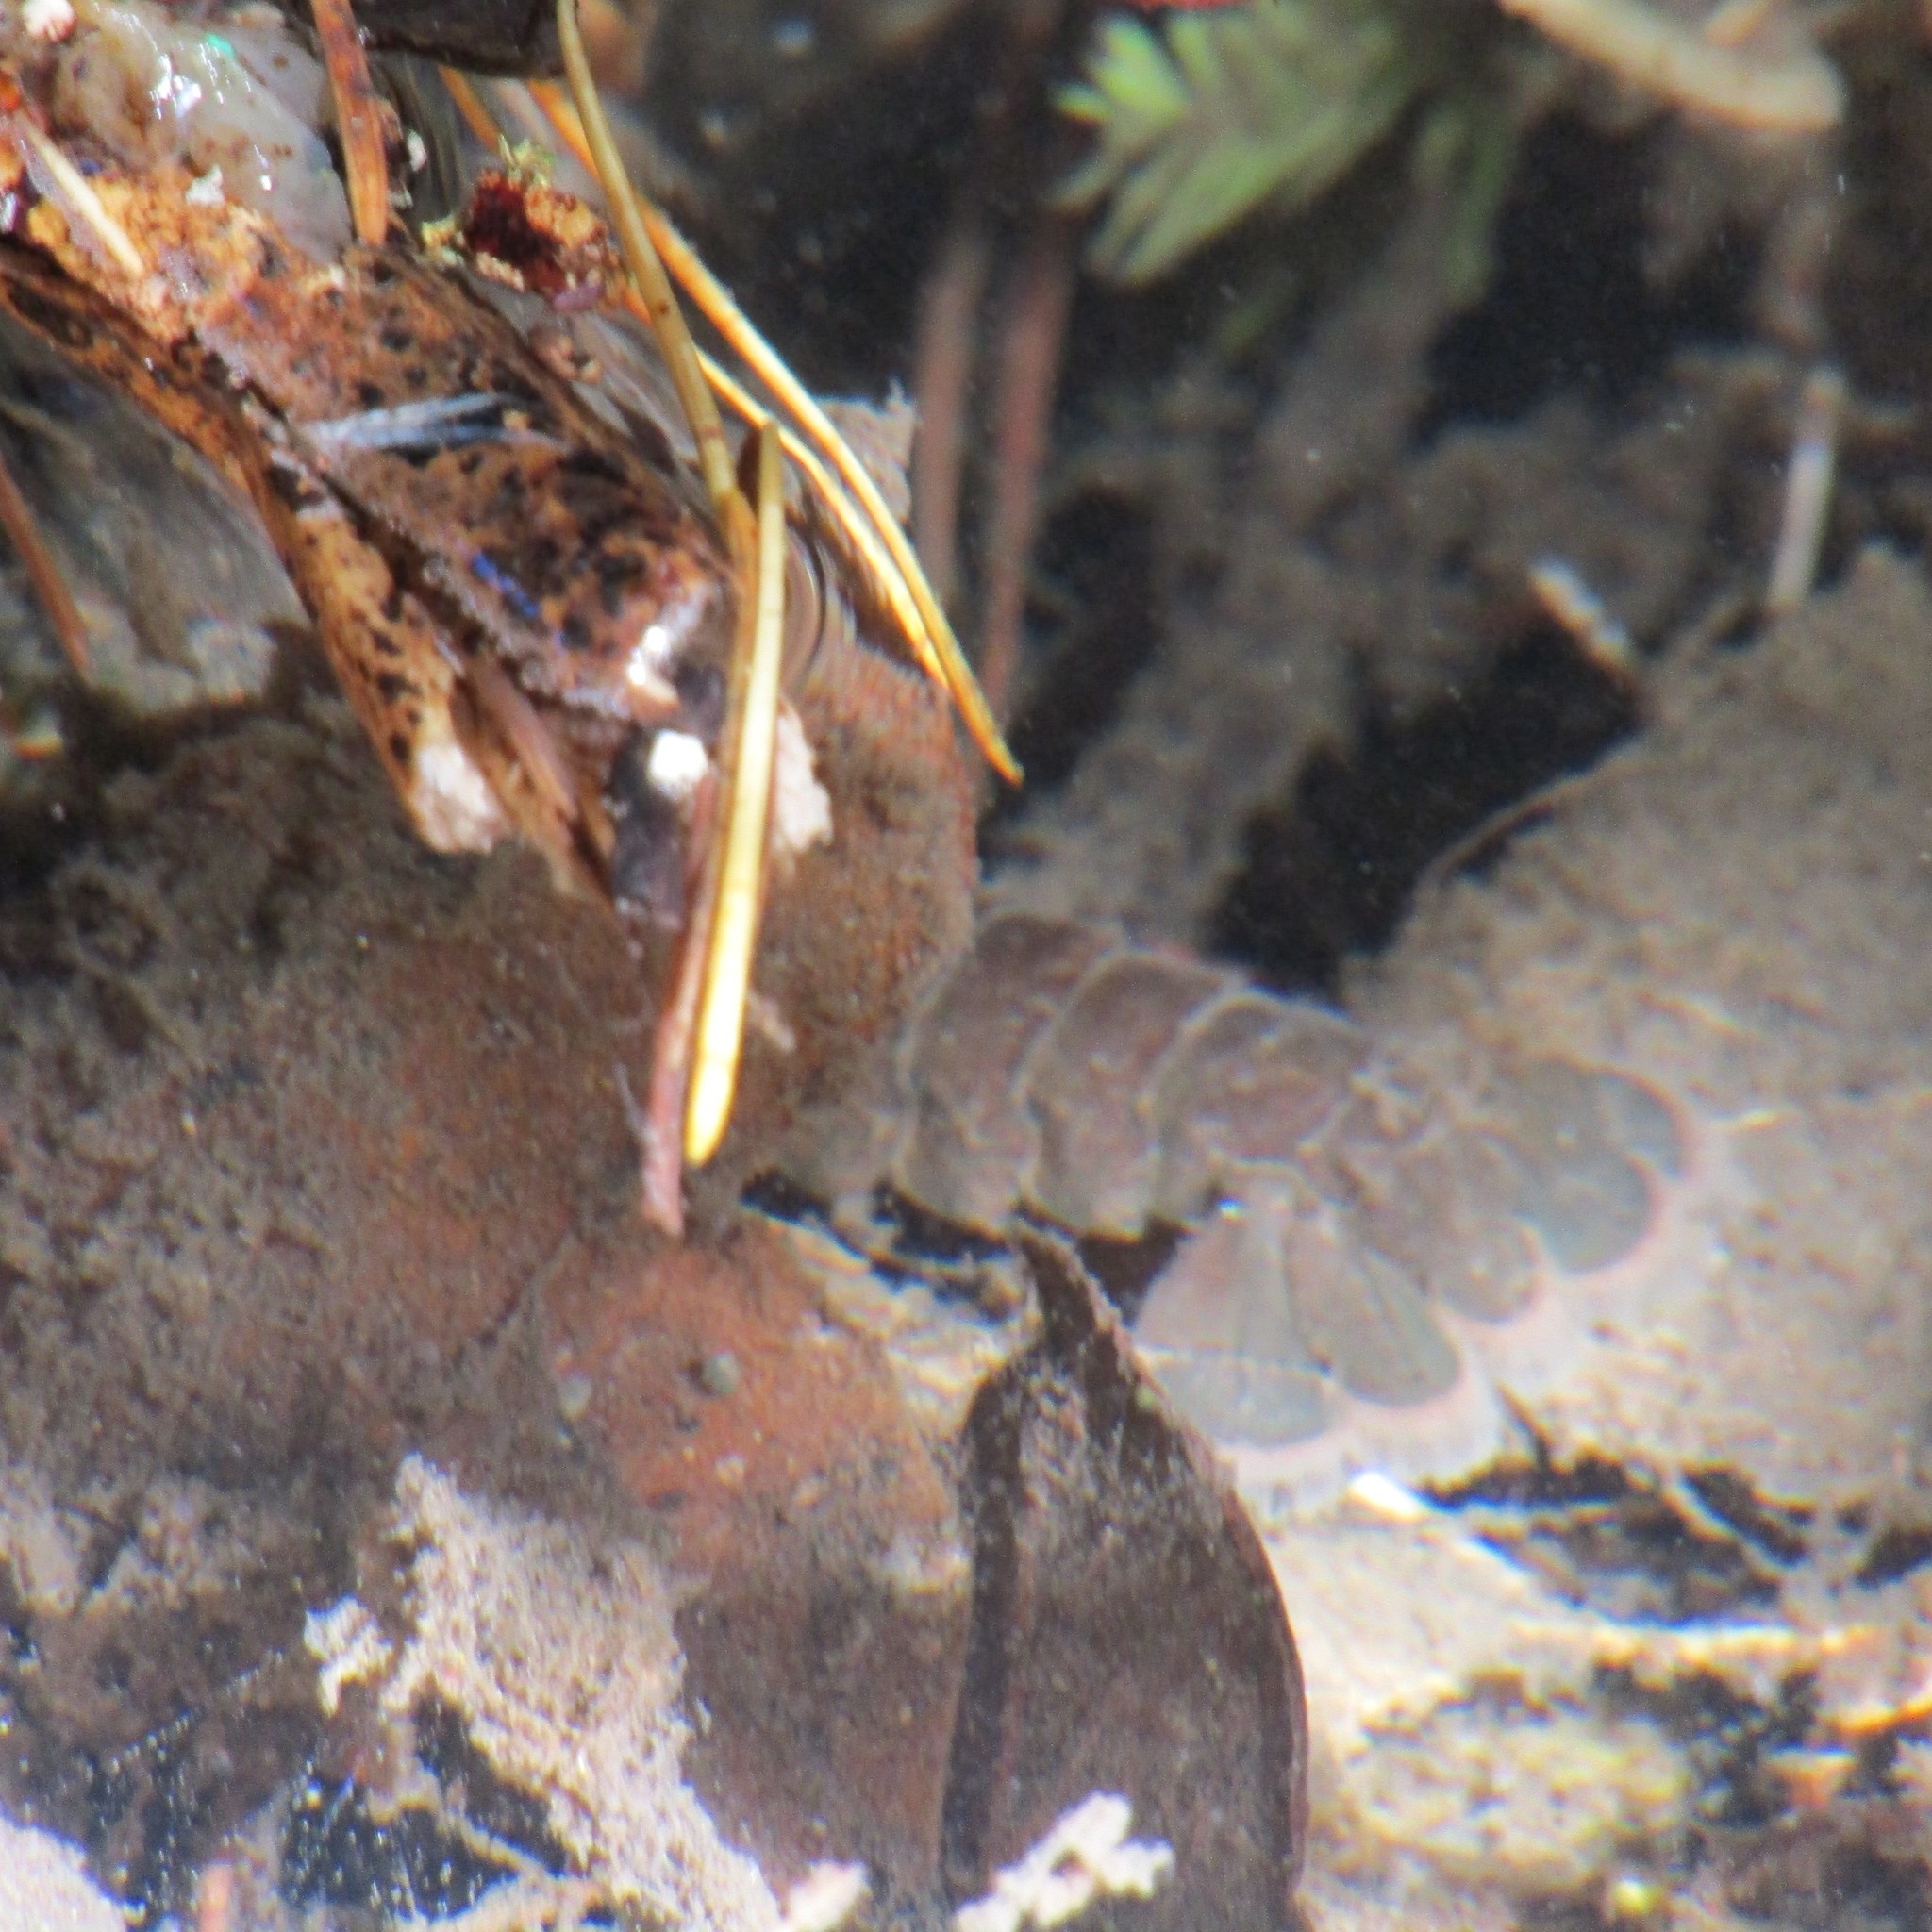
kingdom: Animalia
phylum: Arthropoda
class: Malacostraca
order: Decapoda
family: Parastacidae
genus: Paranephrops
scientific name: Paranephrops planifrons
